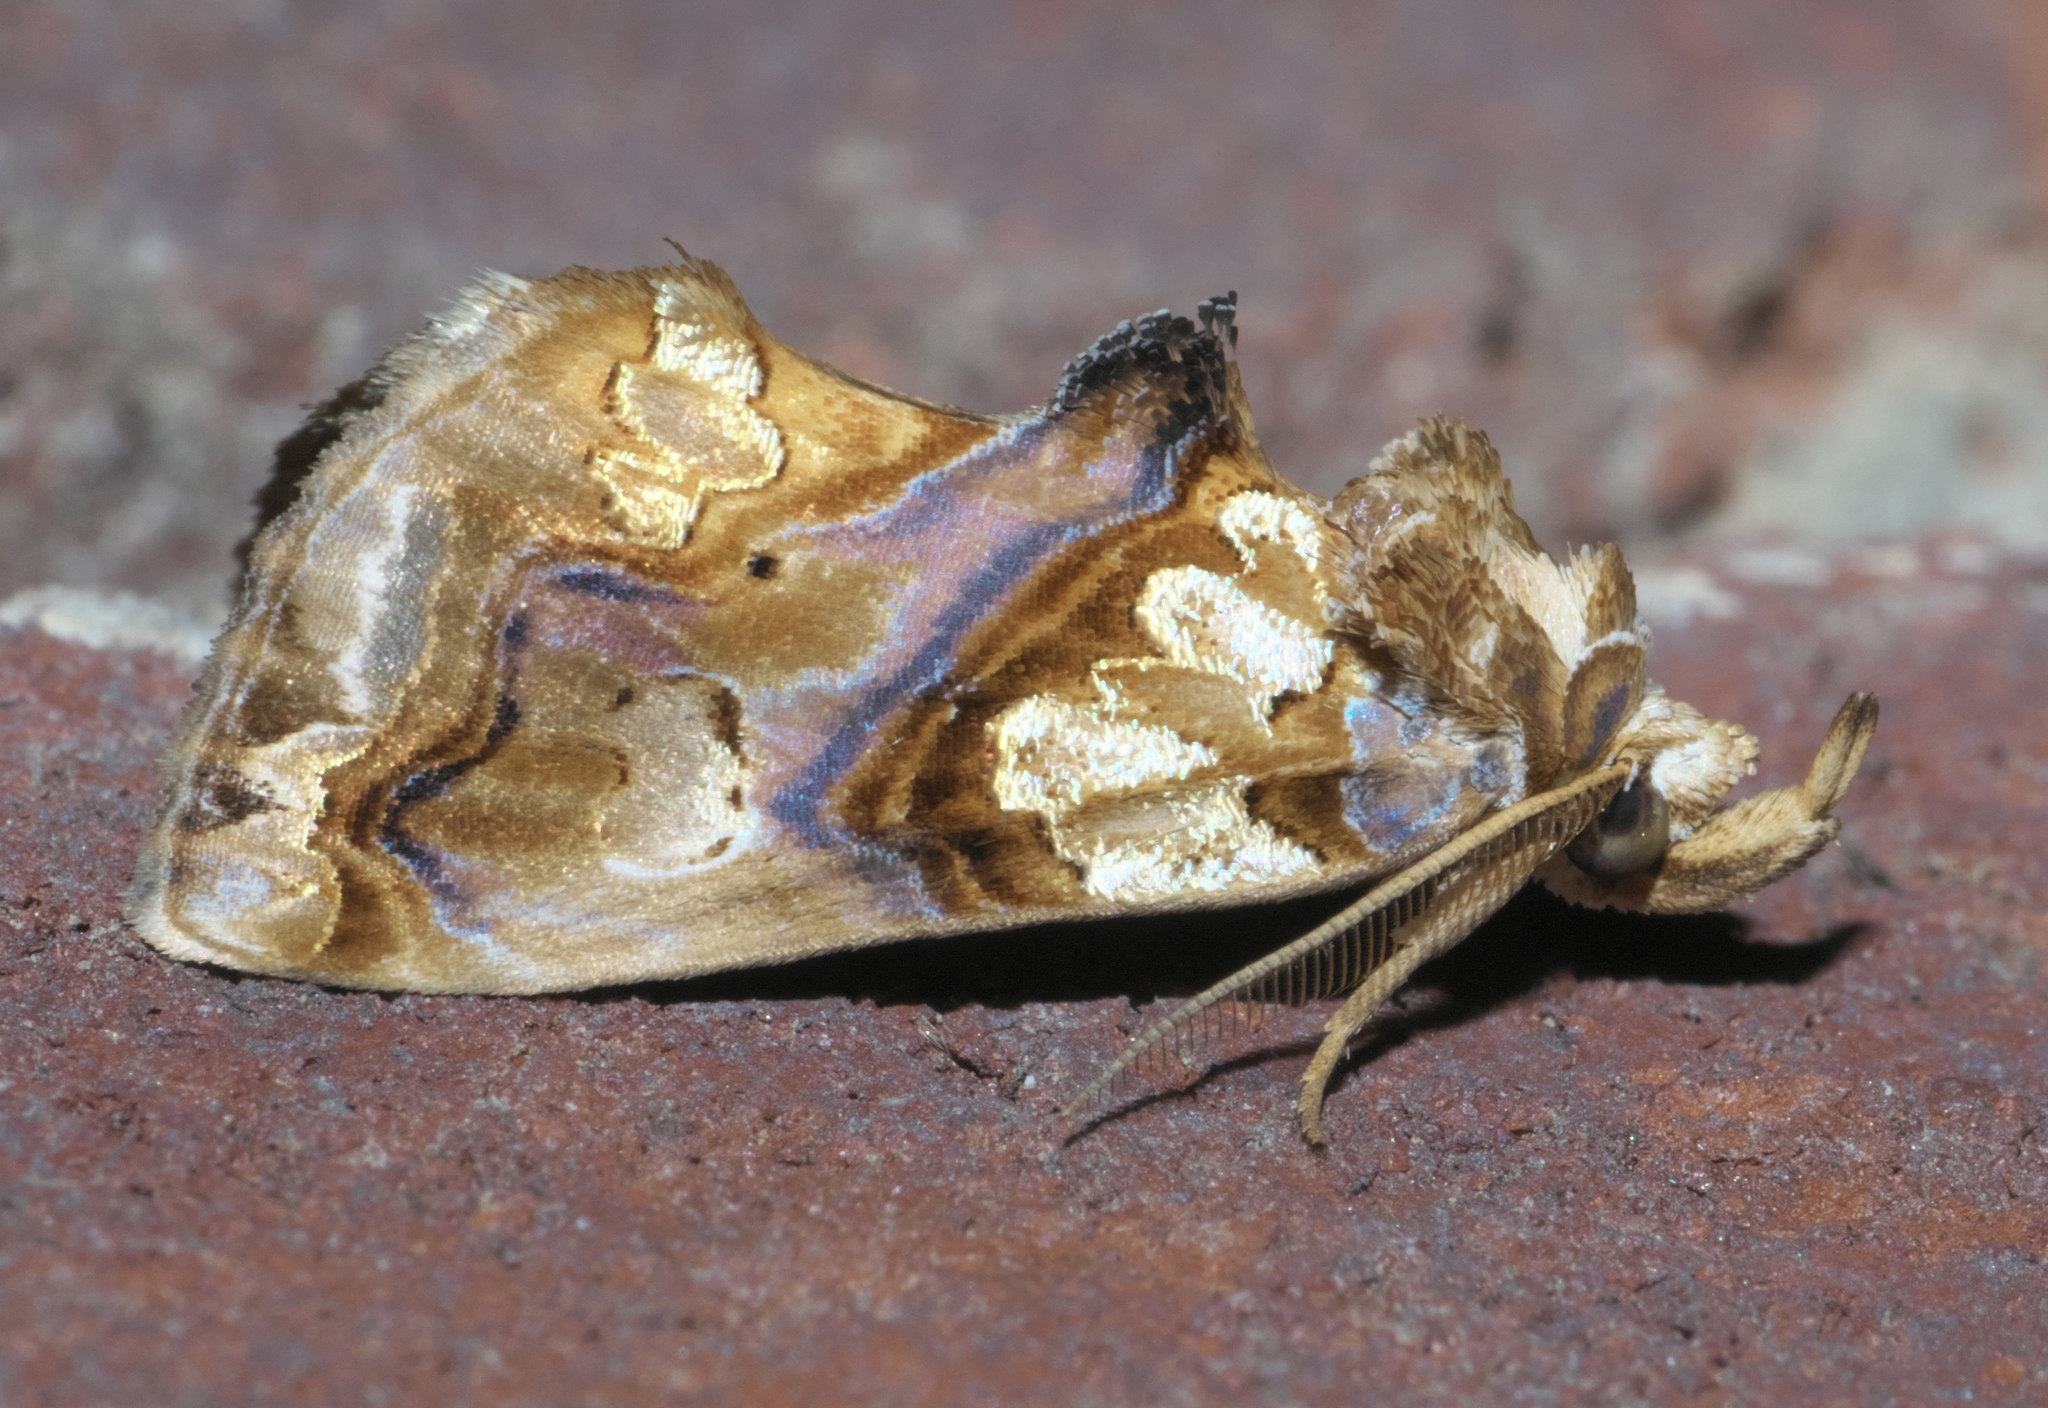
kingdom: Animalia
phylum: Arthropoda
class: Insecta
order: Lepidoptera
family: Erebidae
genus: Plusiodonta
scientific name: Plusiodonta compressipalpis
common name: Moonseed moth
